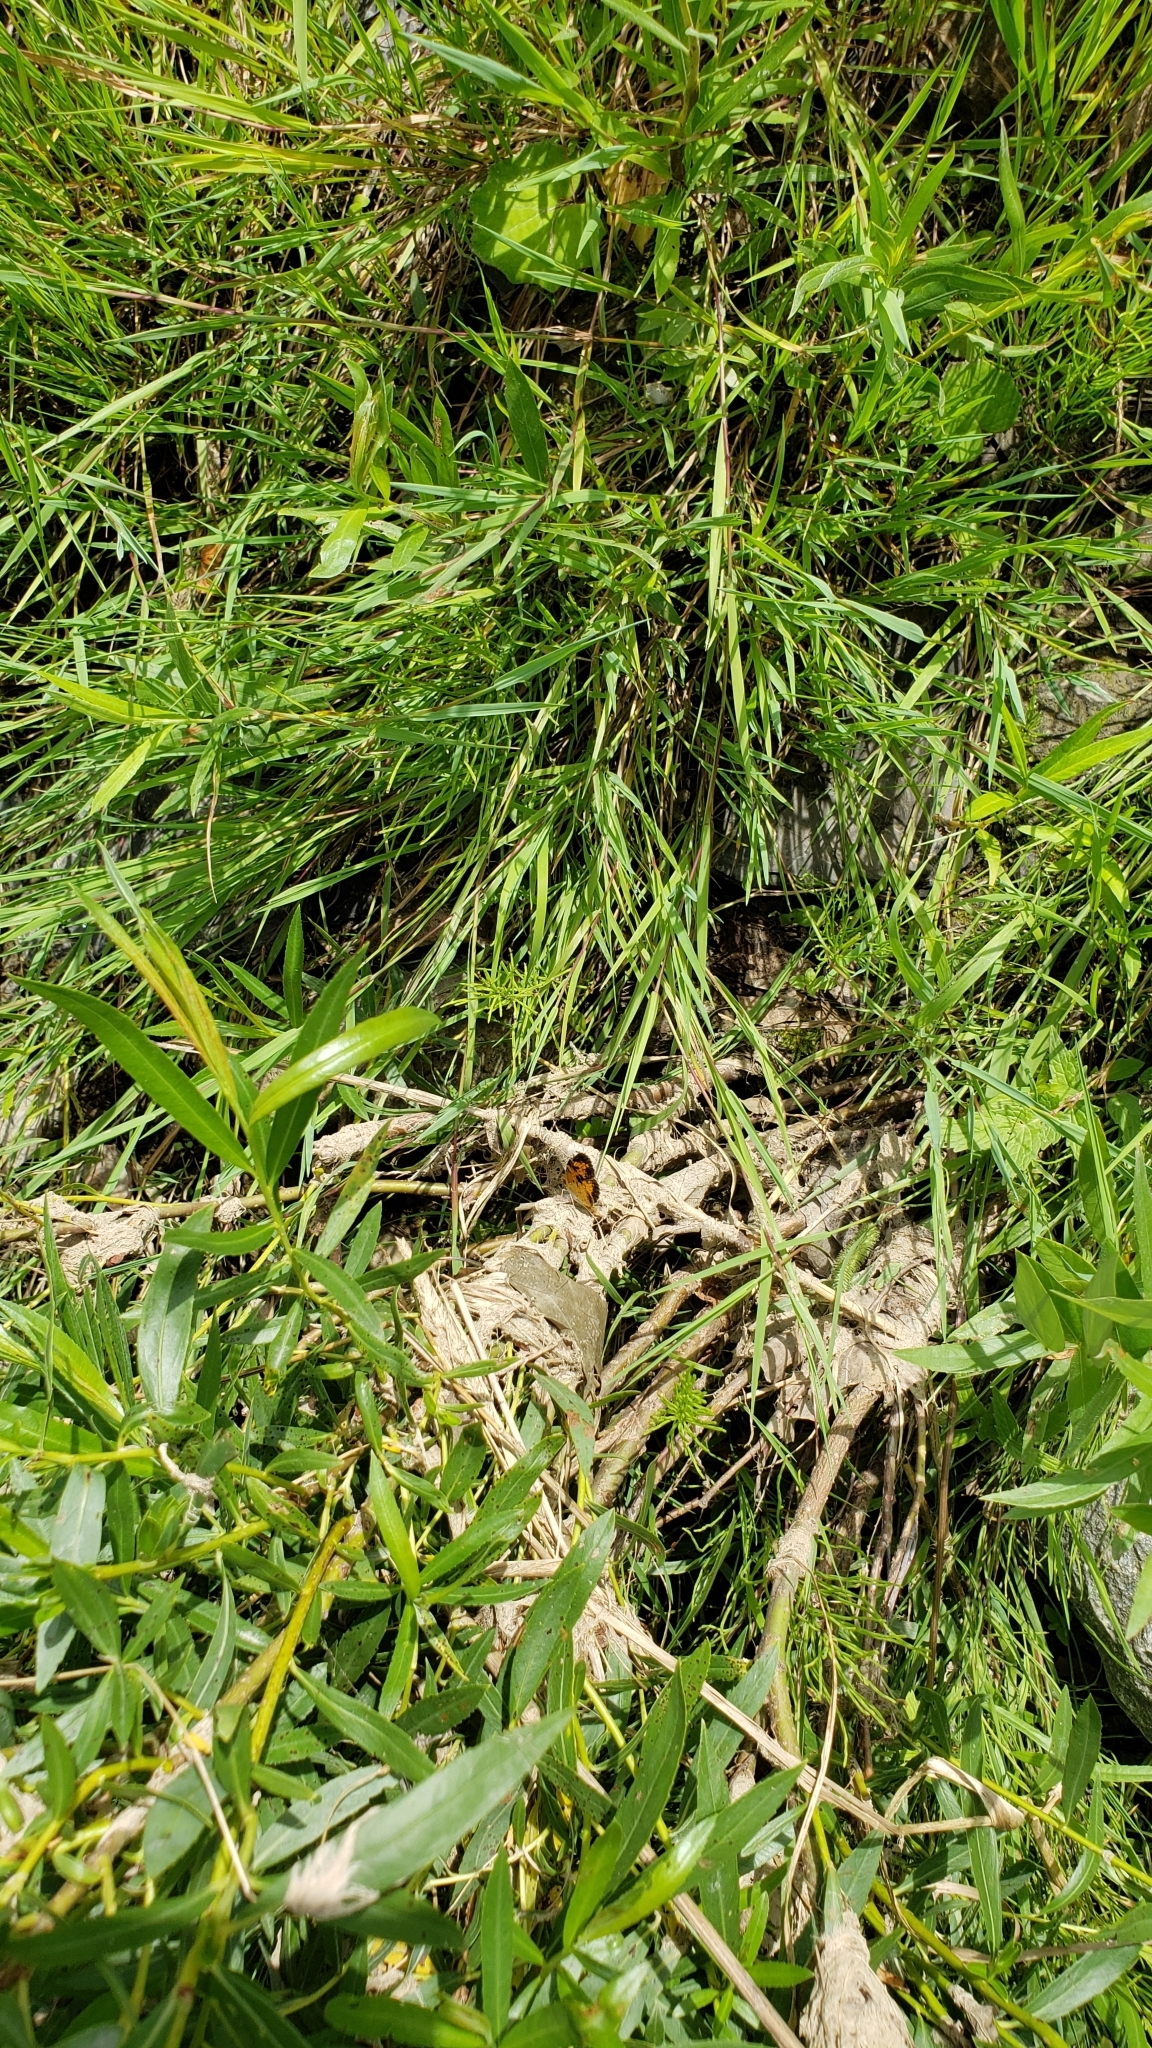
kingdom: Animalia
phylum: Arthropoda
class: Insecta
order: Lepidoptera
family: Nymphalidae
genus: Phyciodes
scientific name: Phyciodes tharos
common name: Pearl crescent
